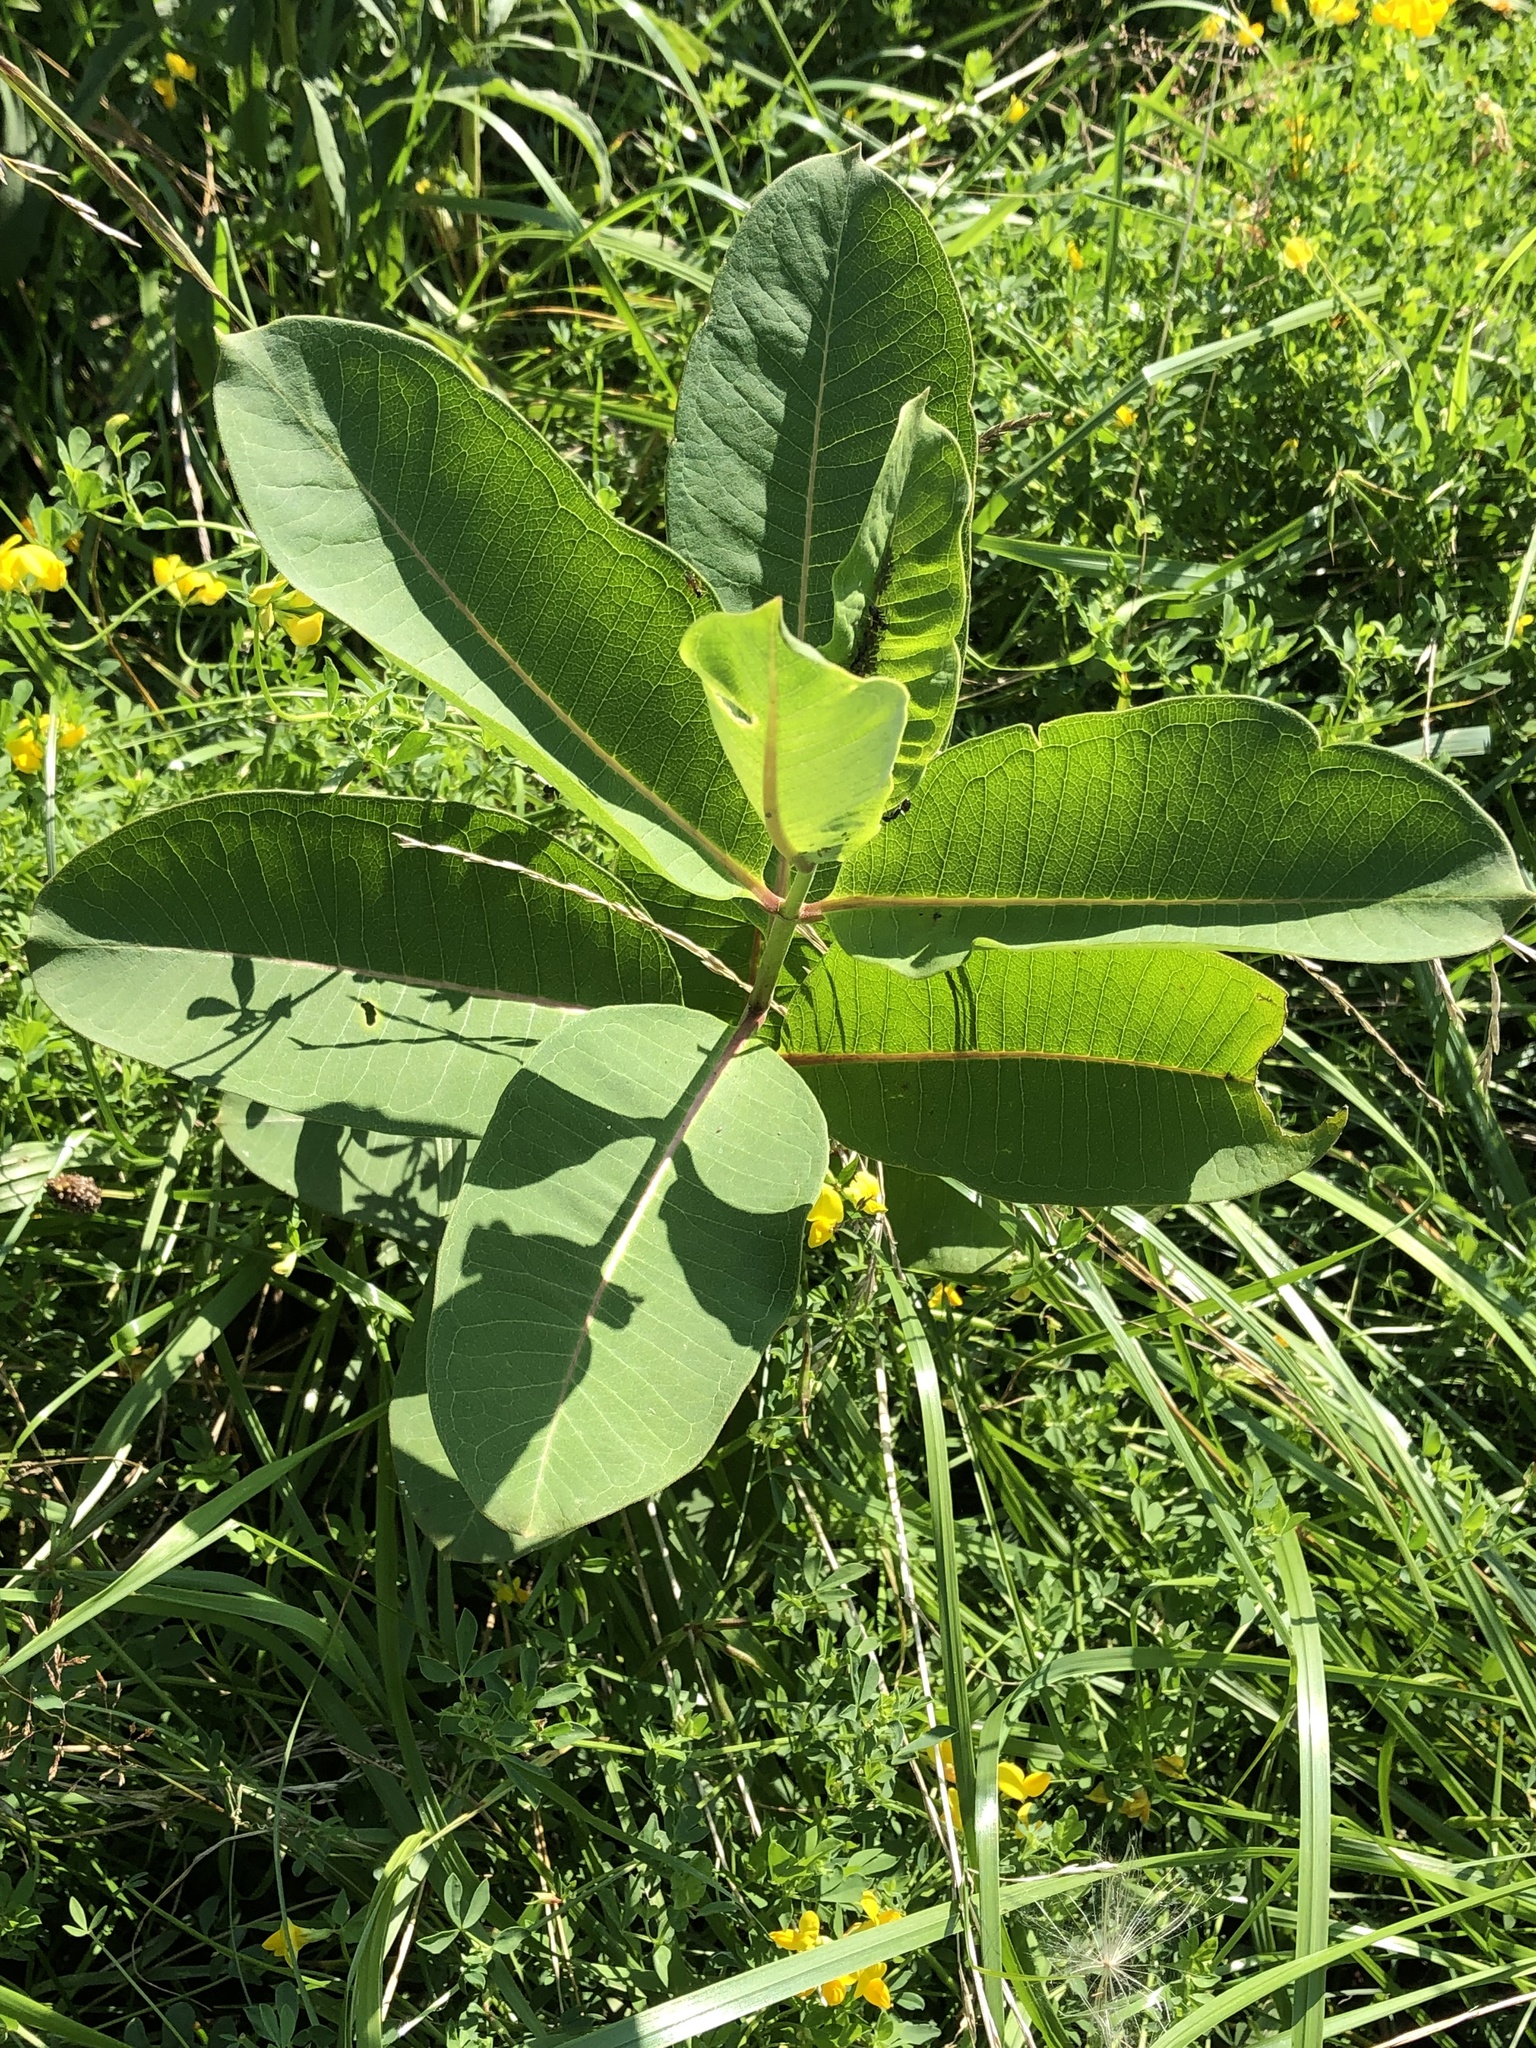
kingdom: Plantae
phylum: Tracheophyta
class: Magnoliopsida
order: Gentianales
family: Apocynaceae
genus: Asclepias
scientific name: Asclepias syriaca
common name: Common milkweed
